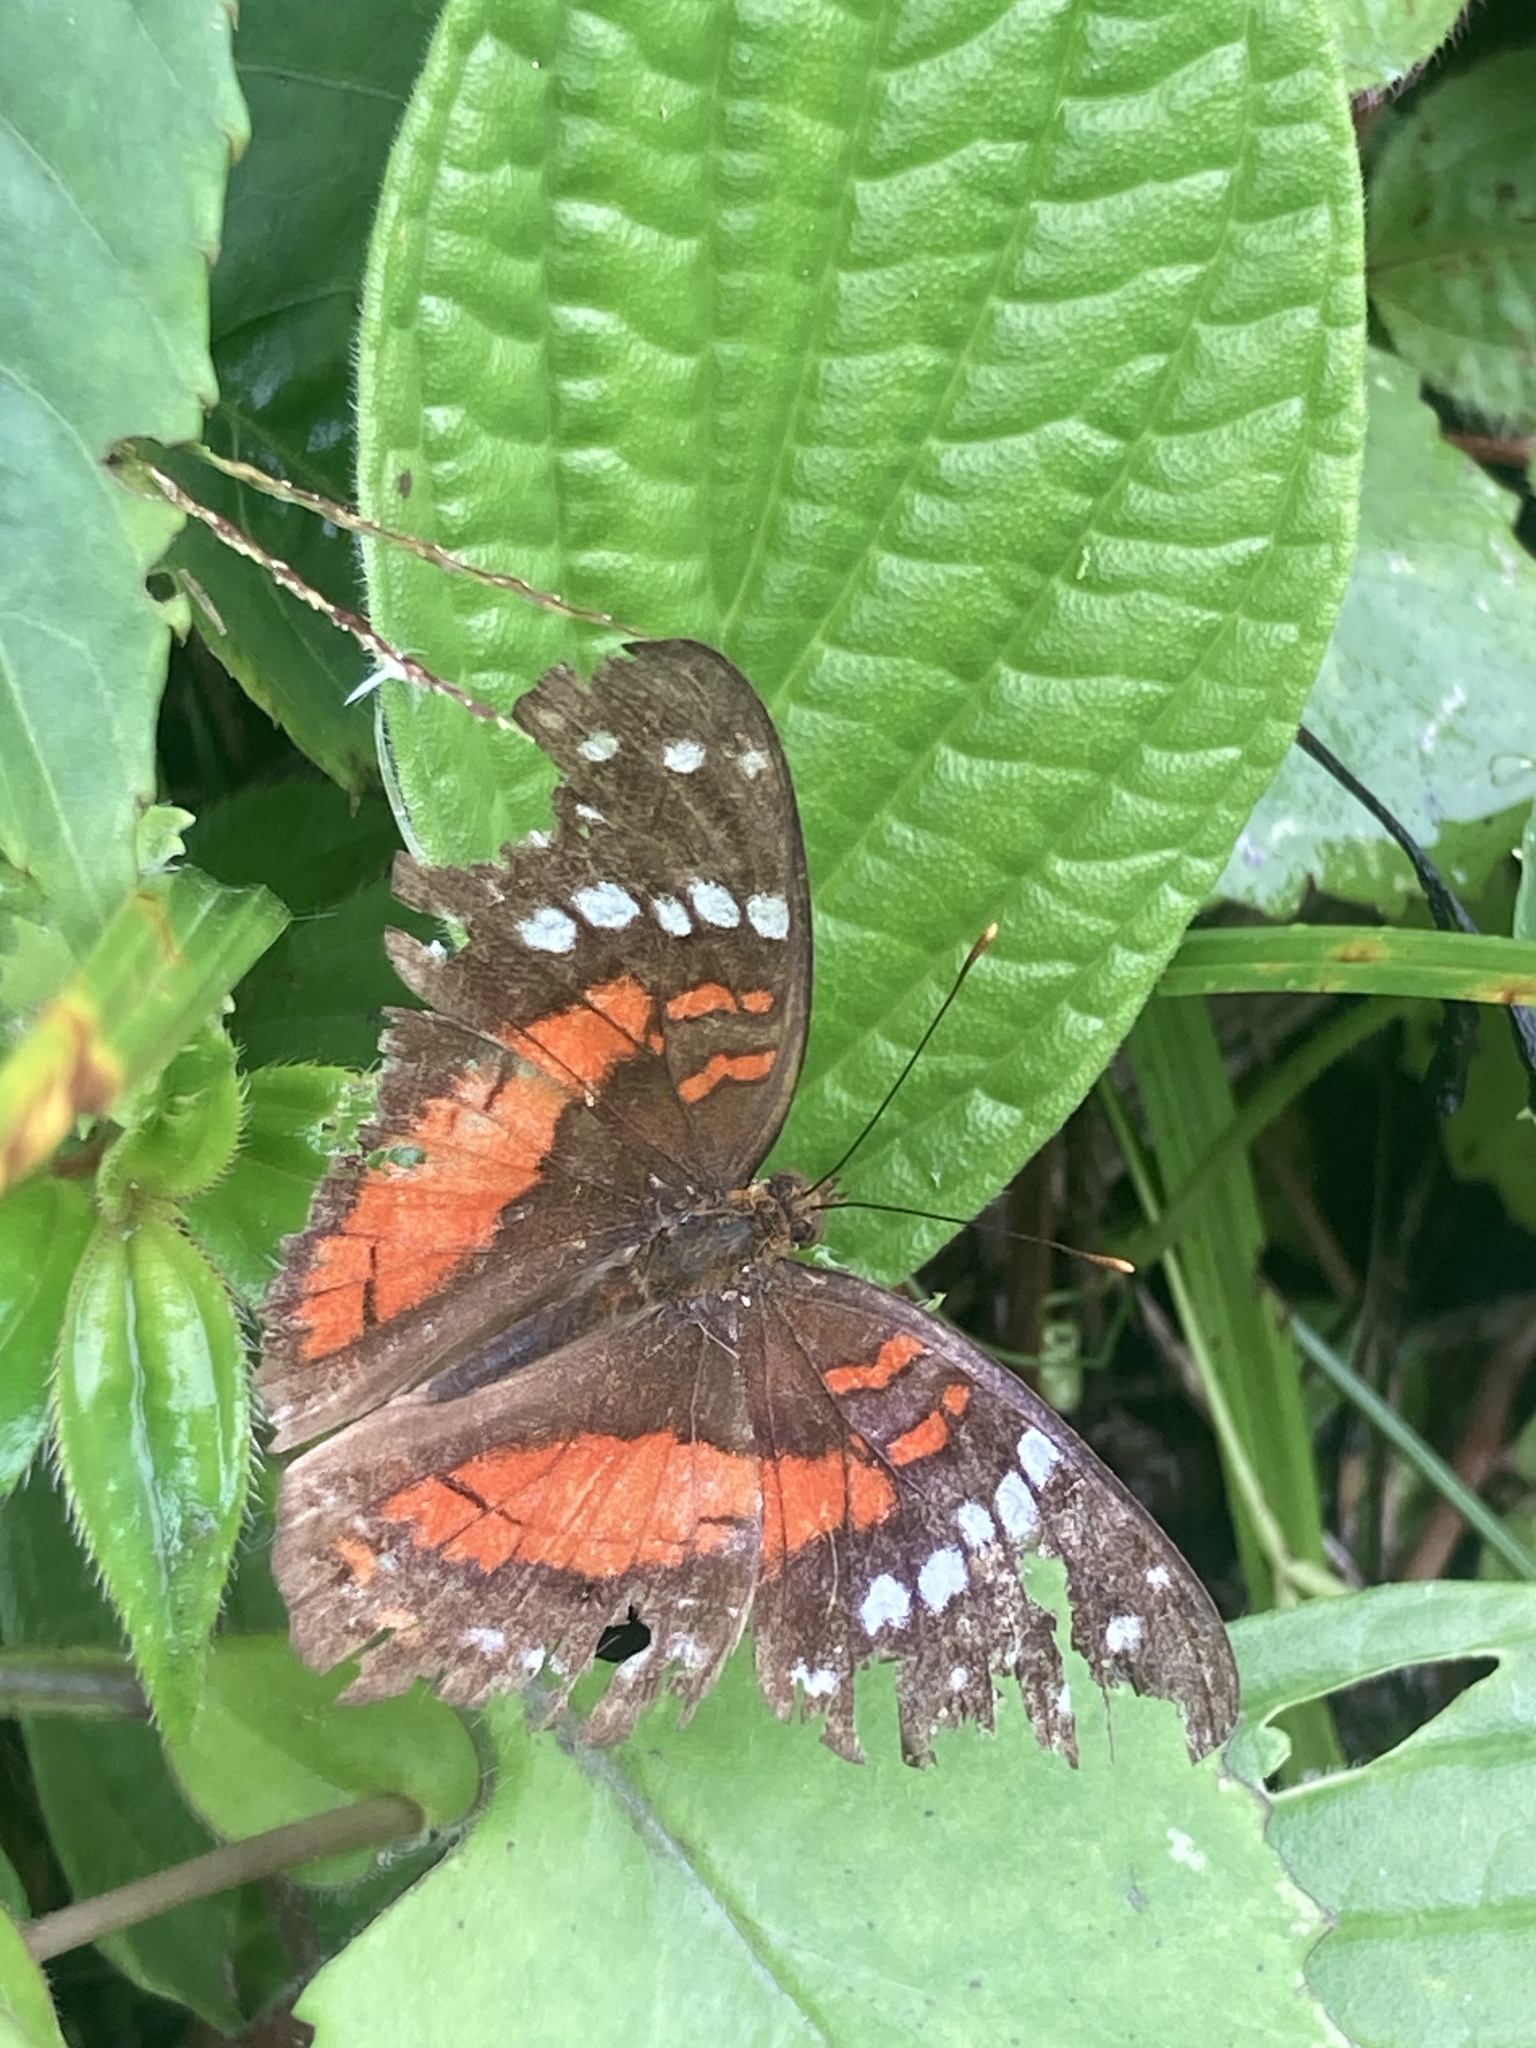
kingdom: Animalia
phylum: Arthropoda
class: Insecta
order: Lepidoptera
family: Nymphalidae
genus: Anartia
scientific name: Anartia amathea
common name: Red peacock
